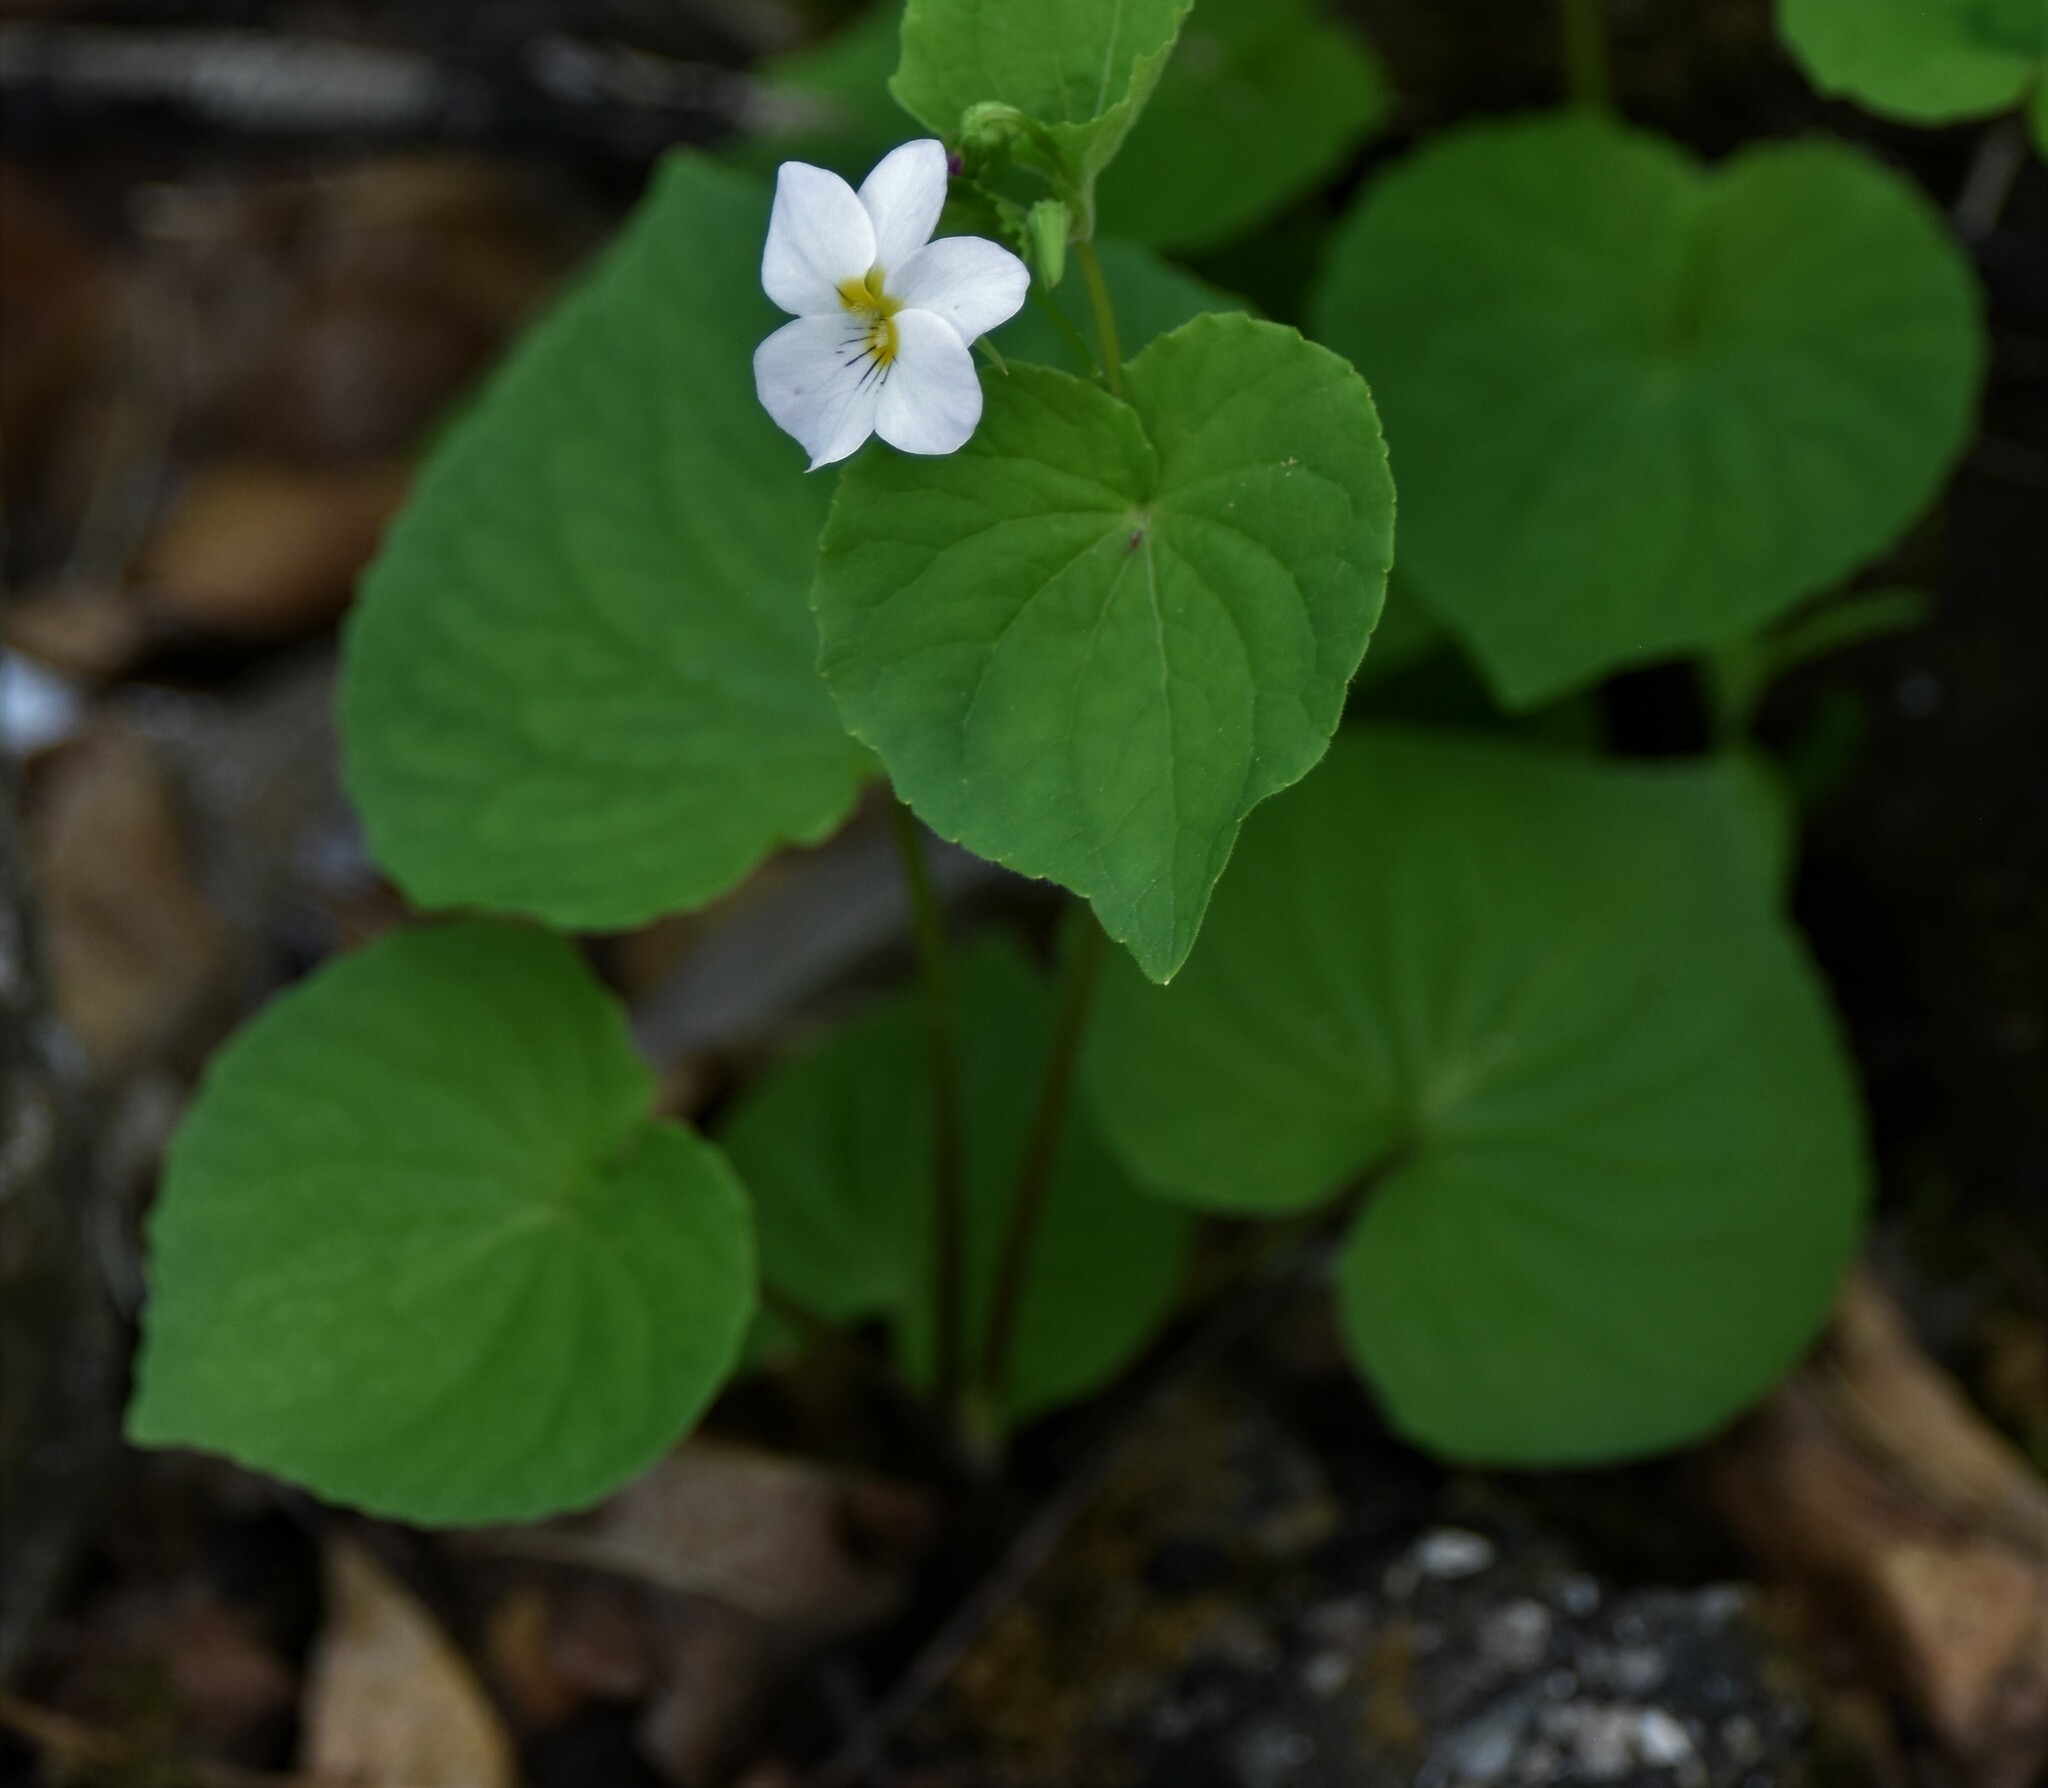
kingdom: Plantae
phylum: Tracheophyta
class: Magnoliopsida
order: Malpighiales
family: Violaceae
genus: Viola
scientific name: Viola canadensis
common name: Canada violet
